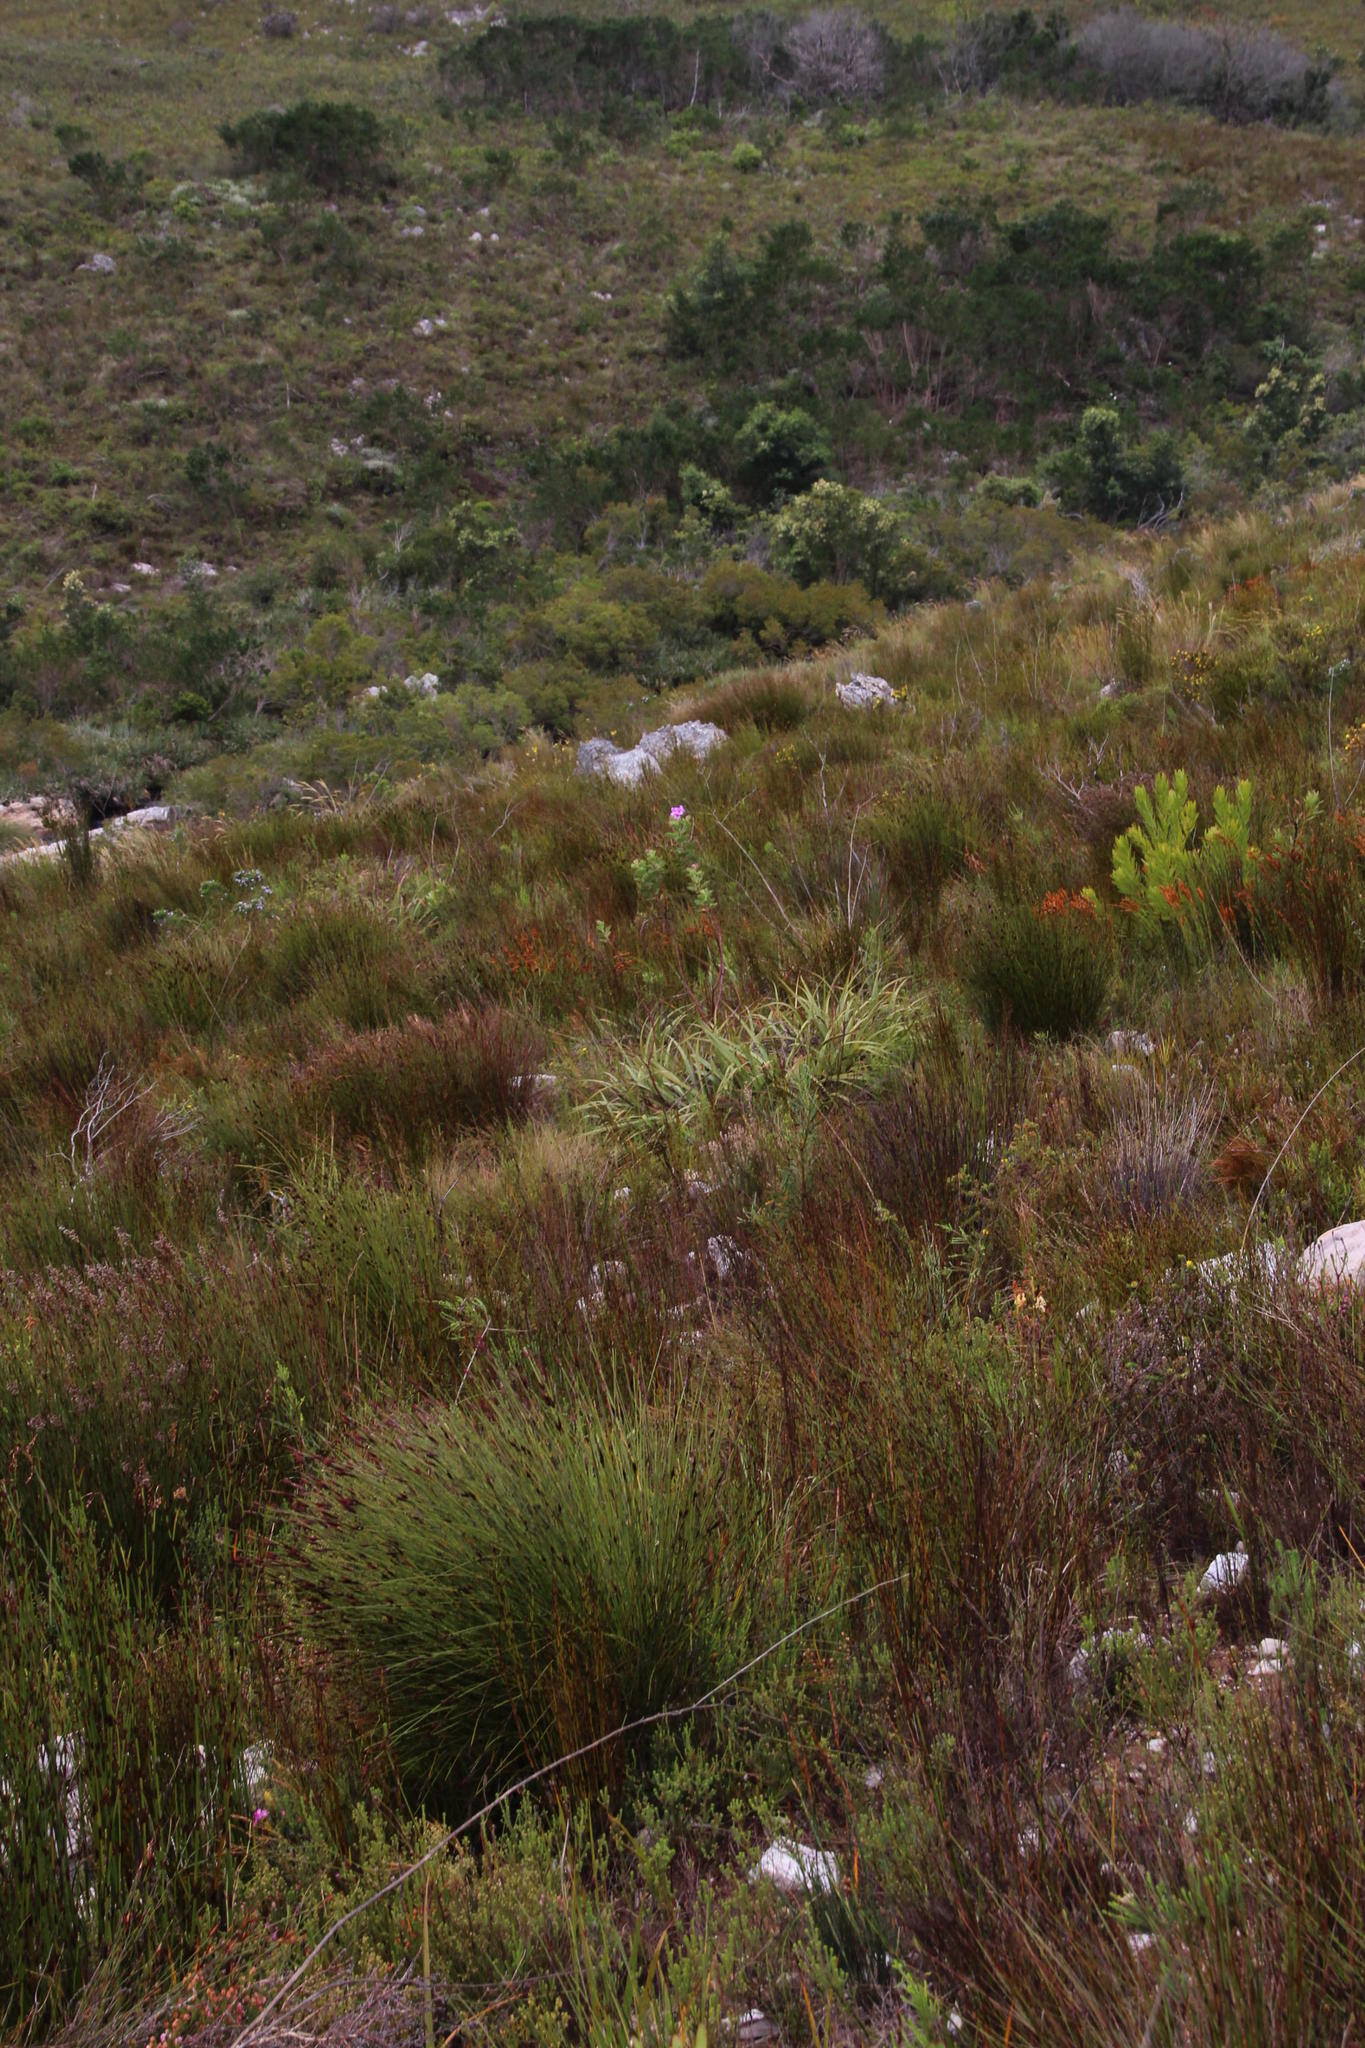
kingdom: Plantae
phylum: Tracheophyta
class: Liliopsida
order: Poales
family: Cyperaceae
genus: Tetraria
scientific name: Tetraria thermalis
